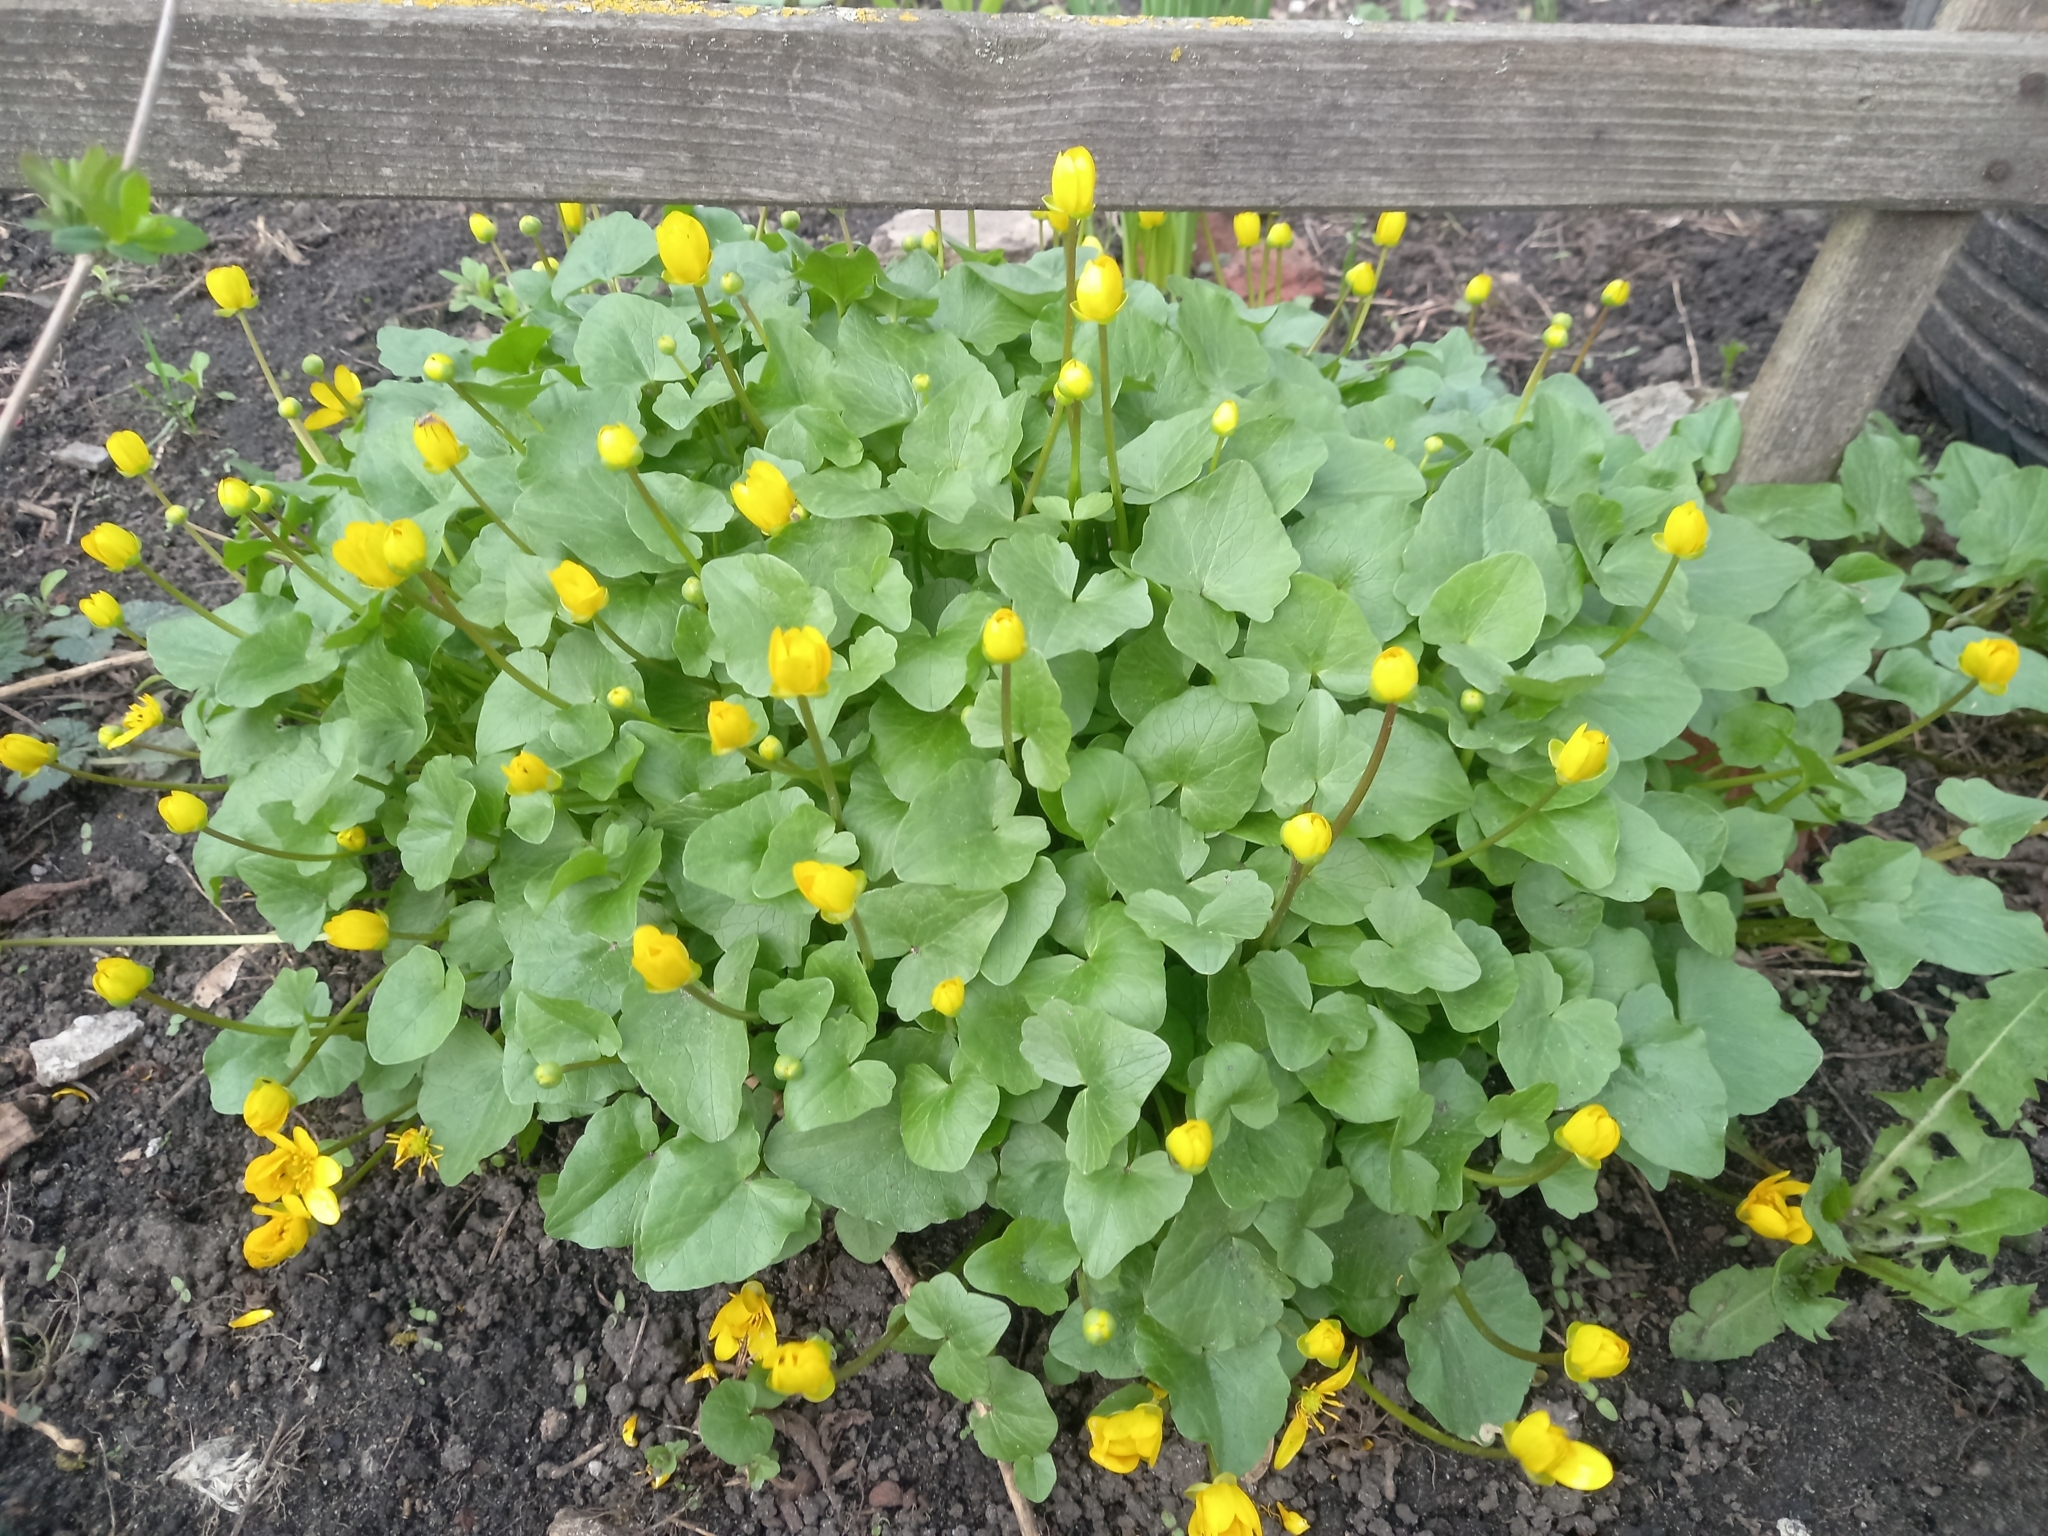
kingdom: Plantae
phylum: Tracheophyta
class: Magnoliopsida
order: Ranunculales
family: Ranunculaceae
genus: Ficaria
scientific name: Ficaria verna
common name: Lesser celandine
